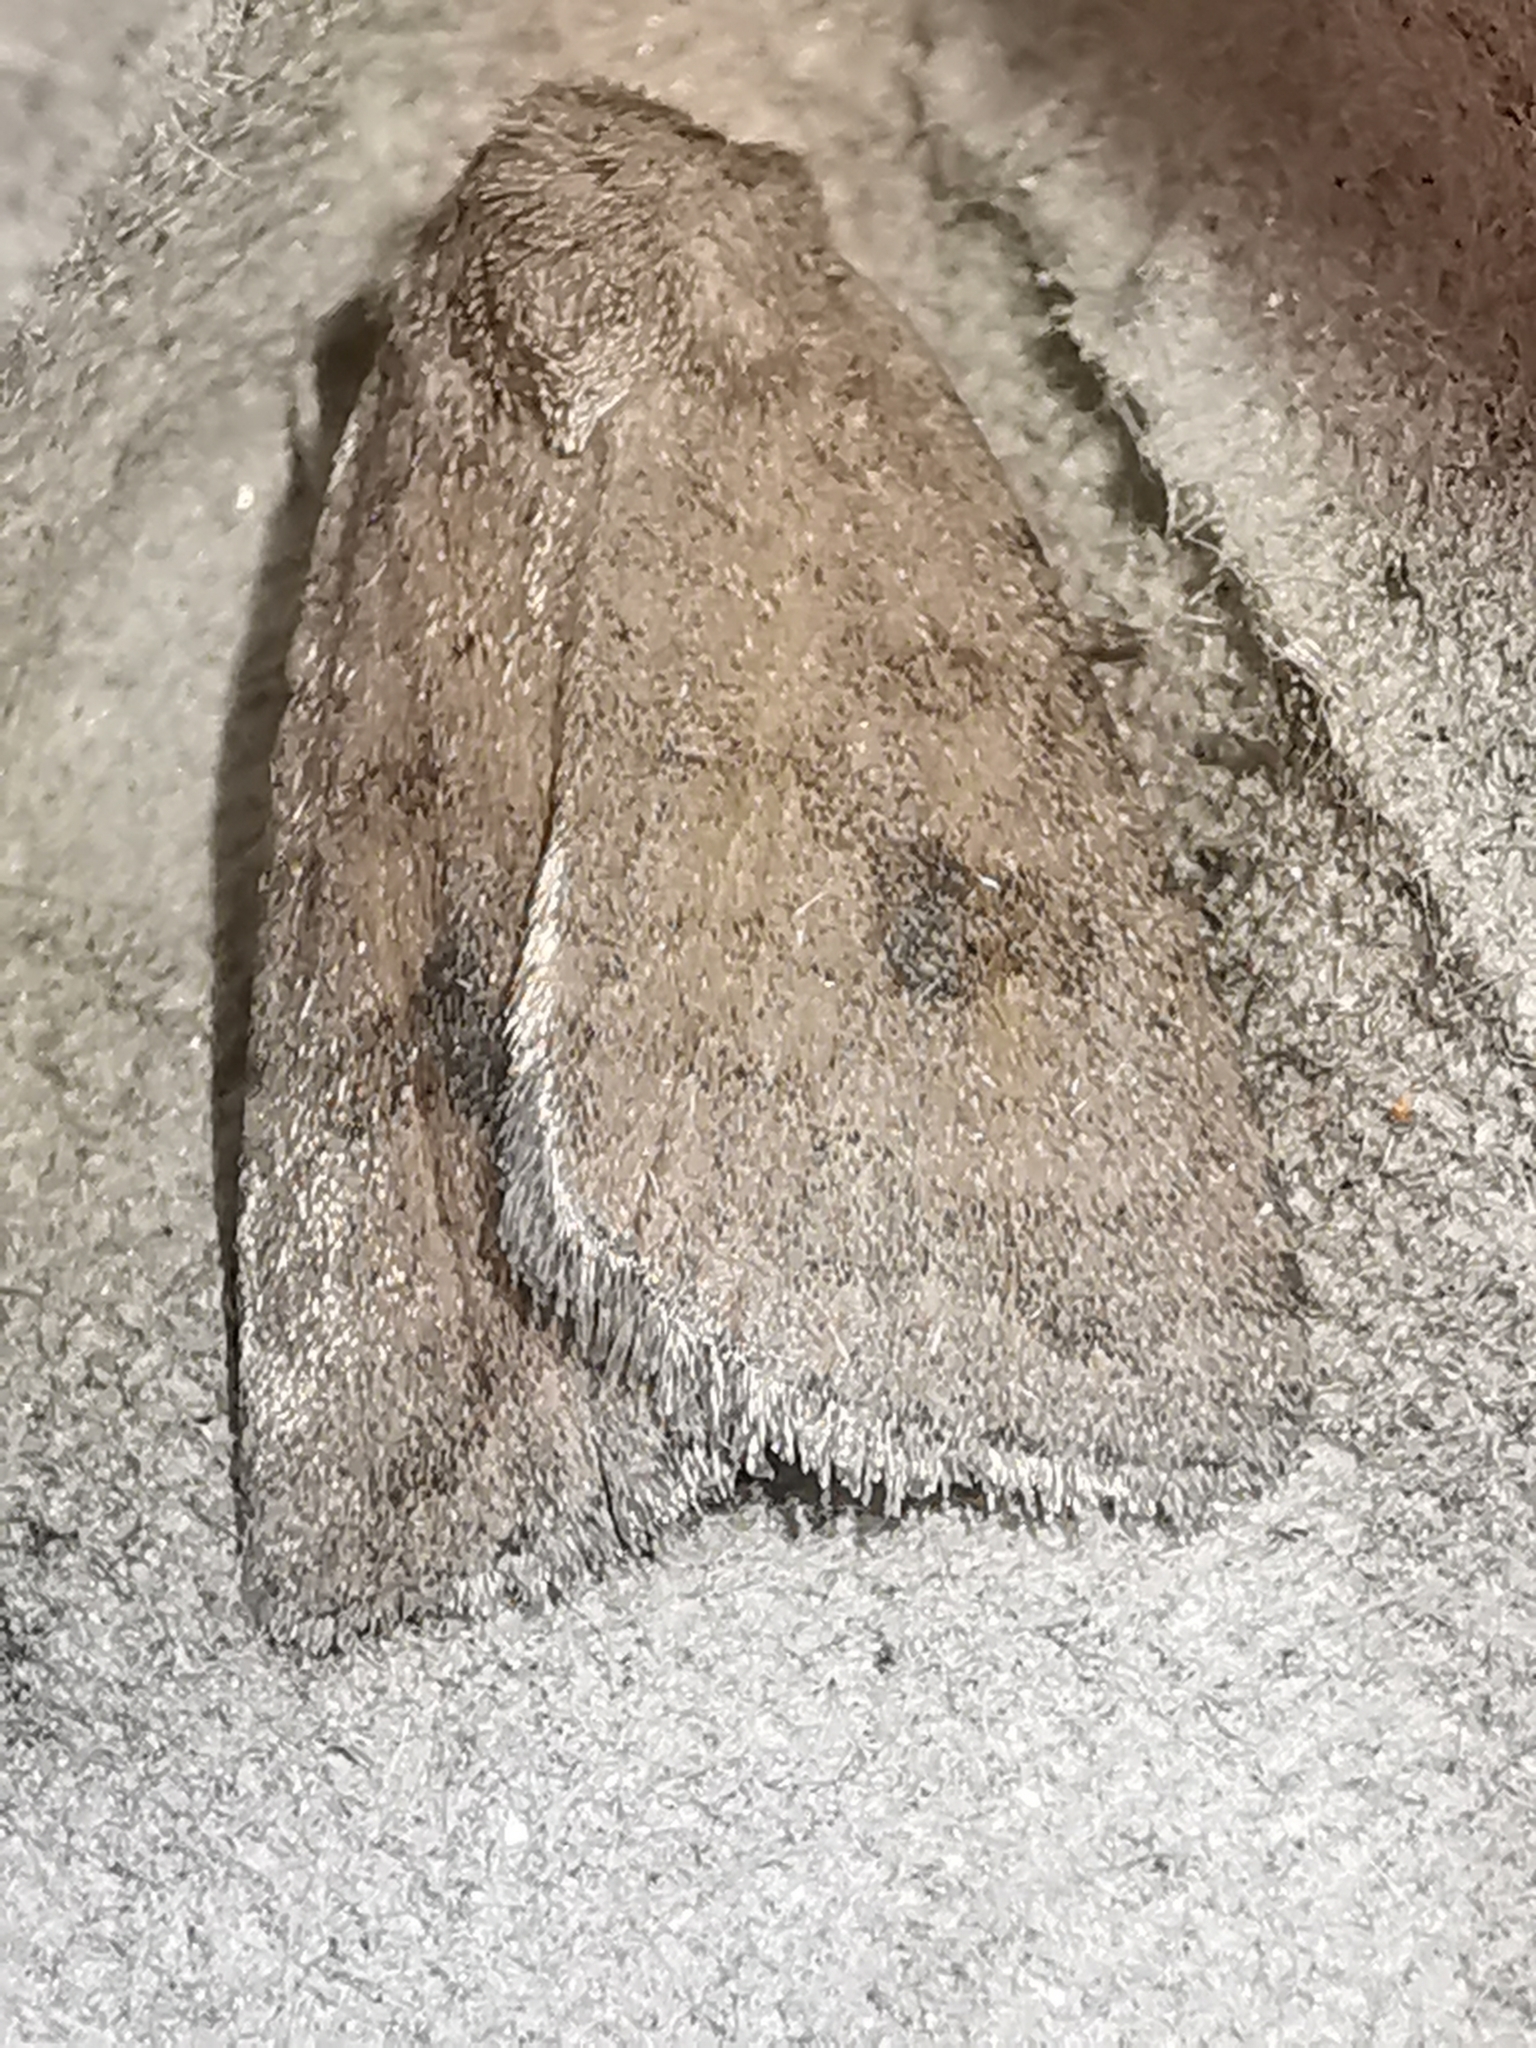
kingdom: Animalia
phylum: Arthropoda
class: Insecta
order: Lepidoptera
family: Noctuidae
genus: Caradrina
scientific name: Caradrina morpheus
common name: Mottled rustic
